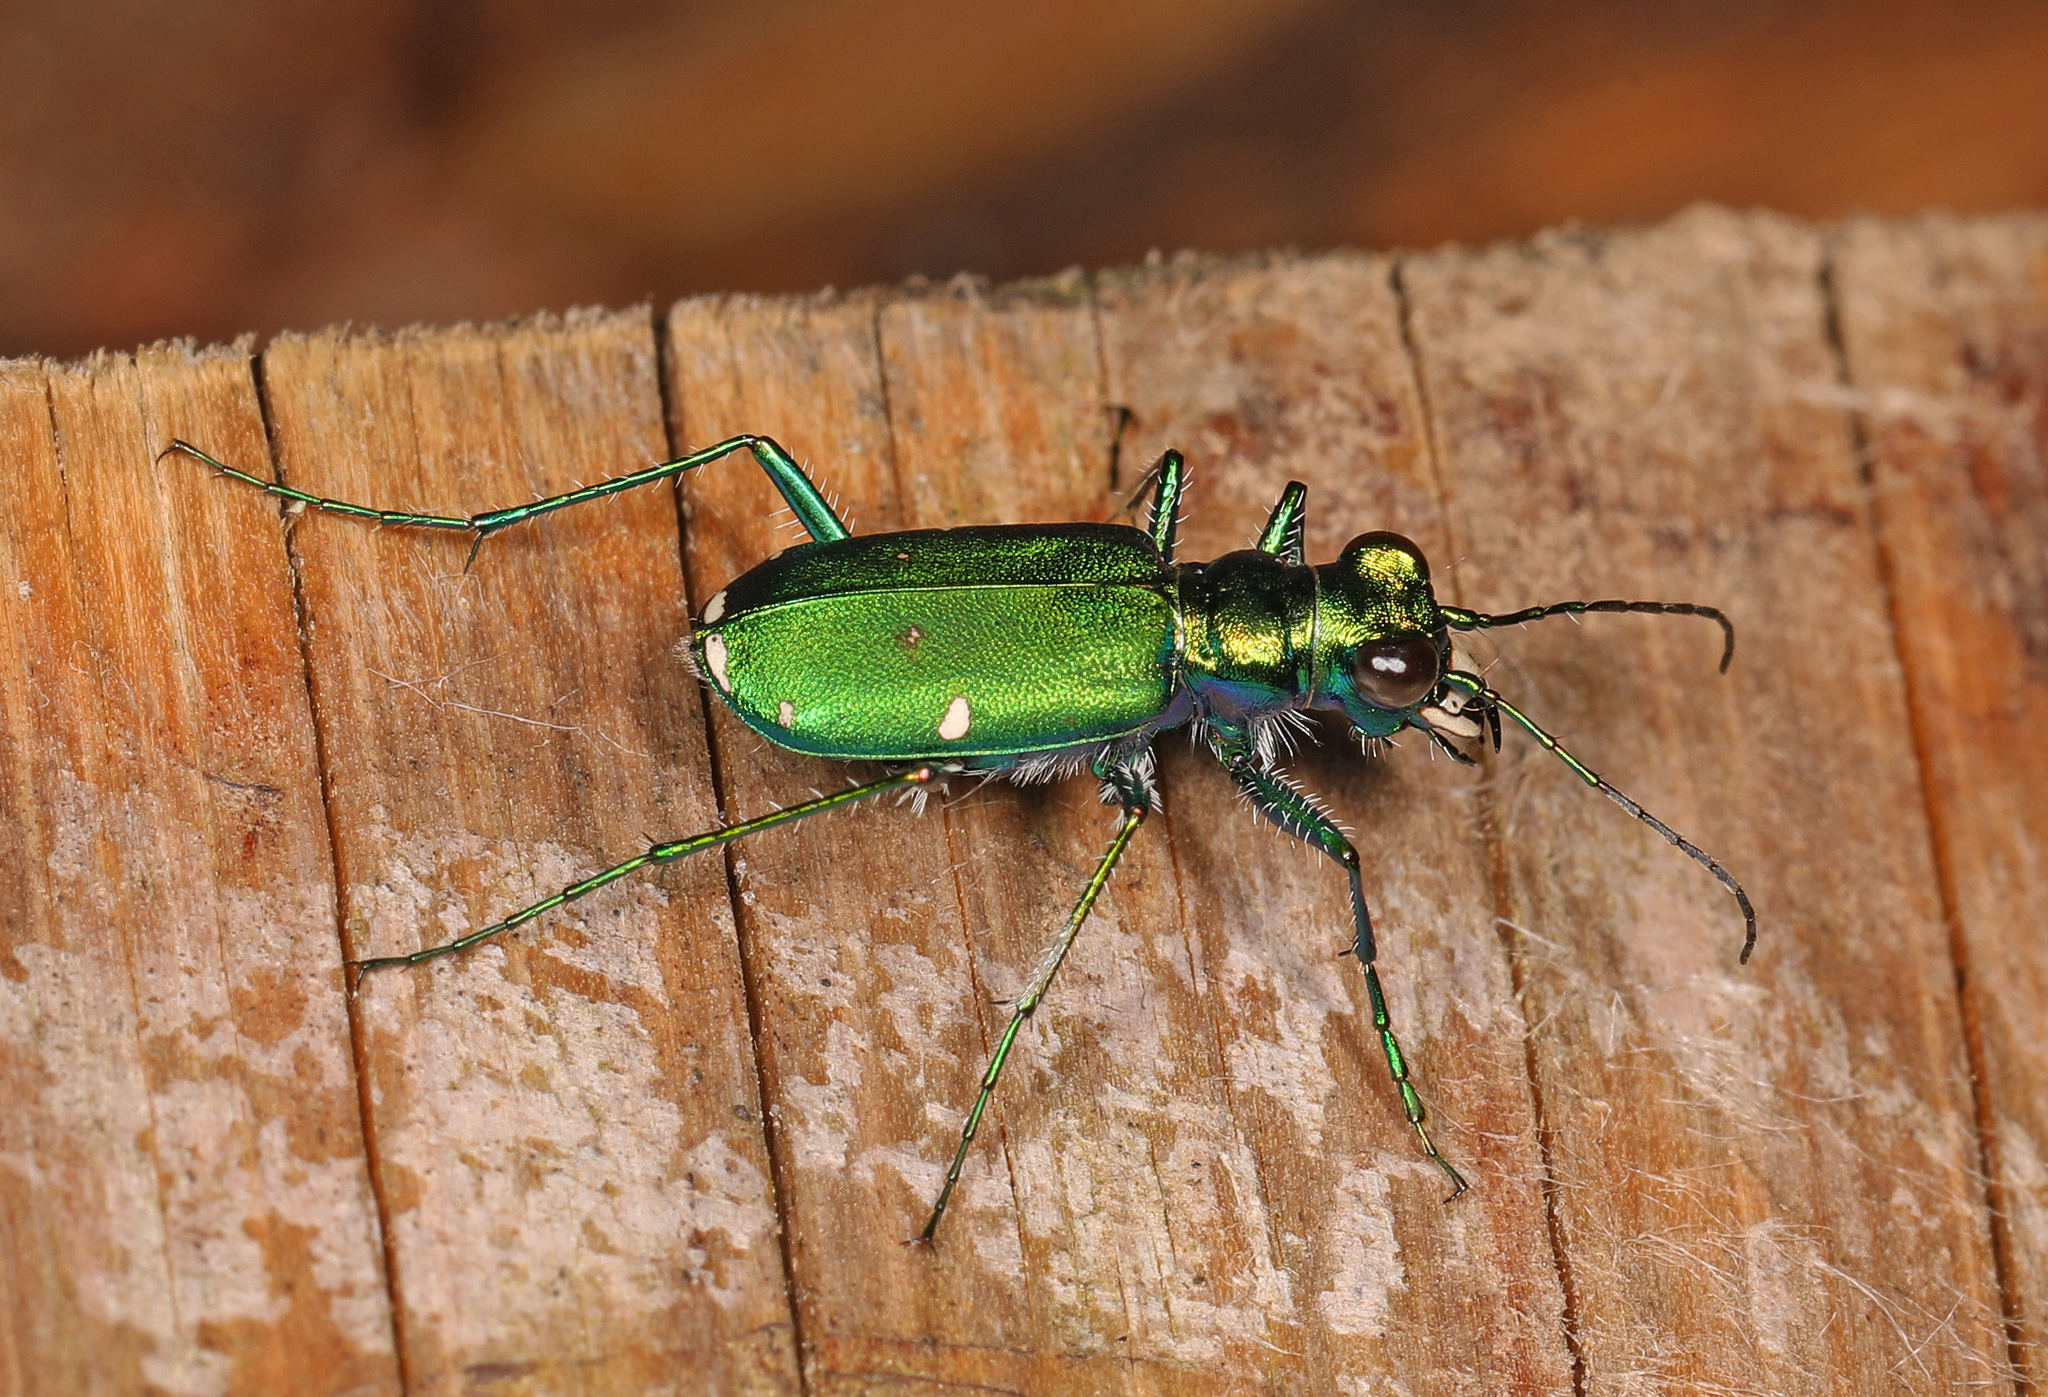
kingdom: Animalia
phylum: Arthropoda
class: Insecta
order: Coleoptera
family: Carabidae
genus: Cicindela
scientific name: Cicindela sexguttata
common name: Six-spotted tiger beetle
